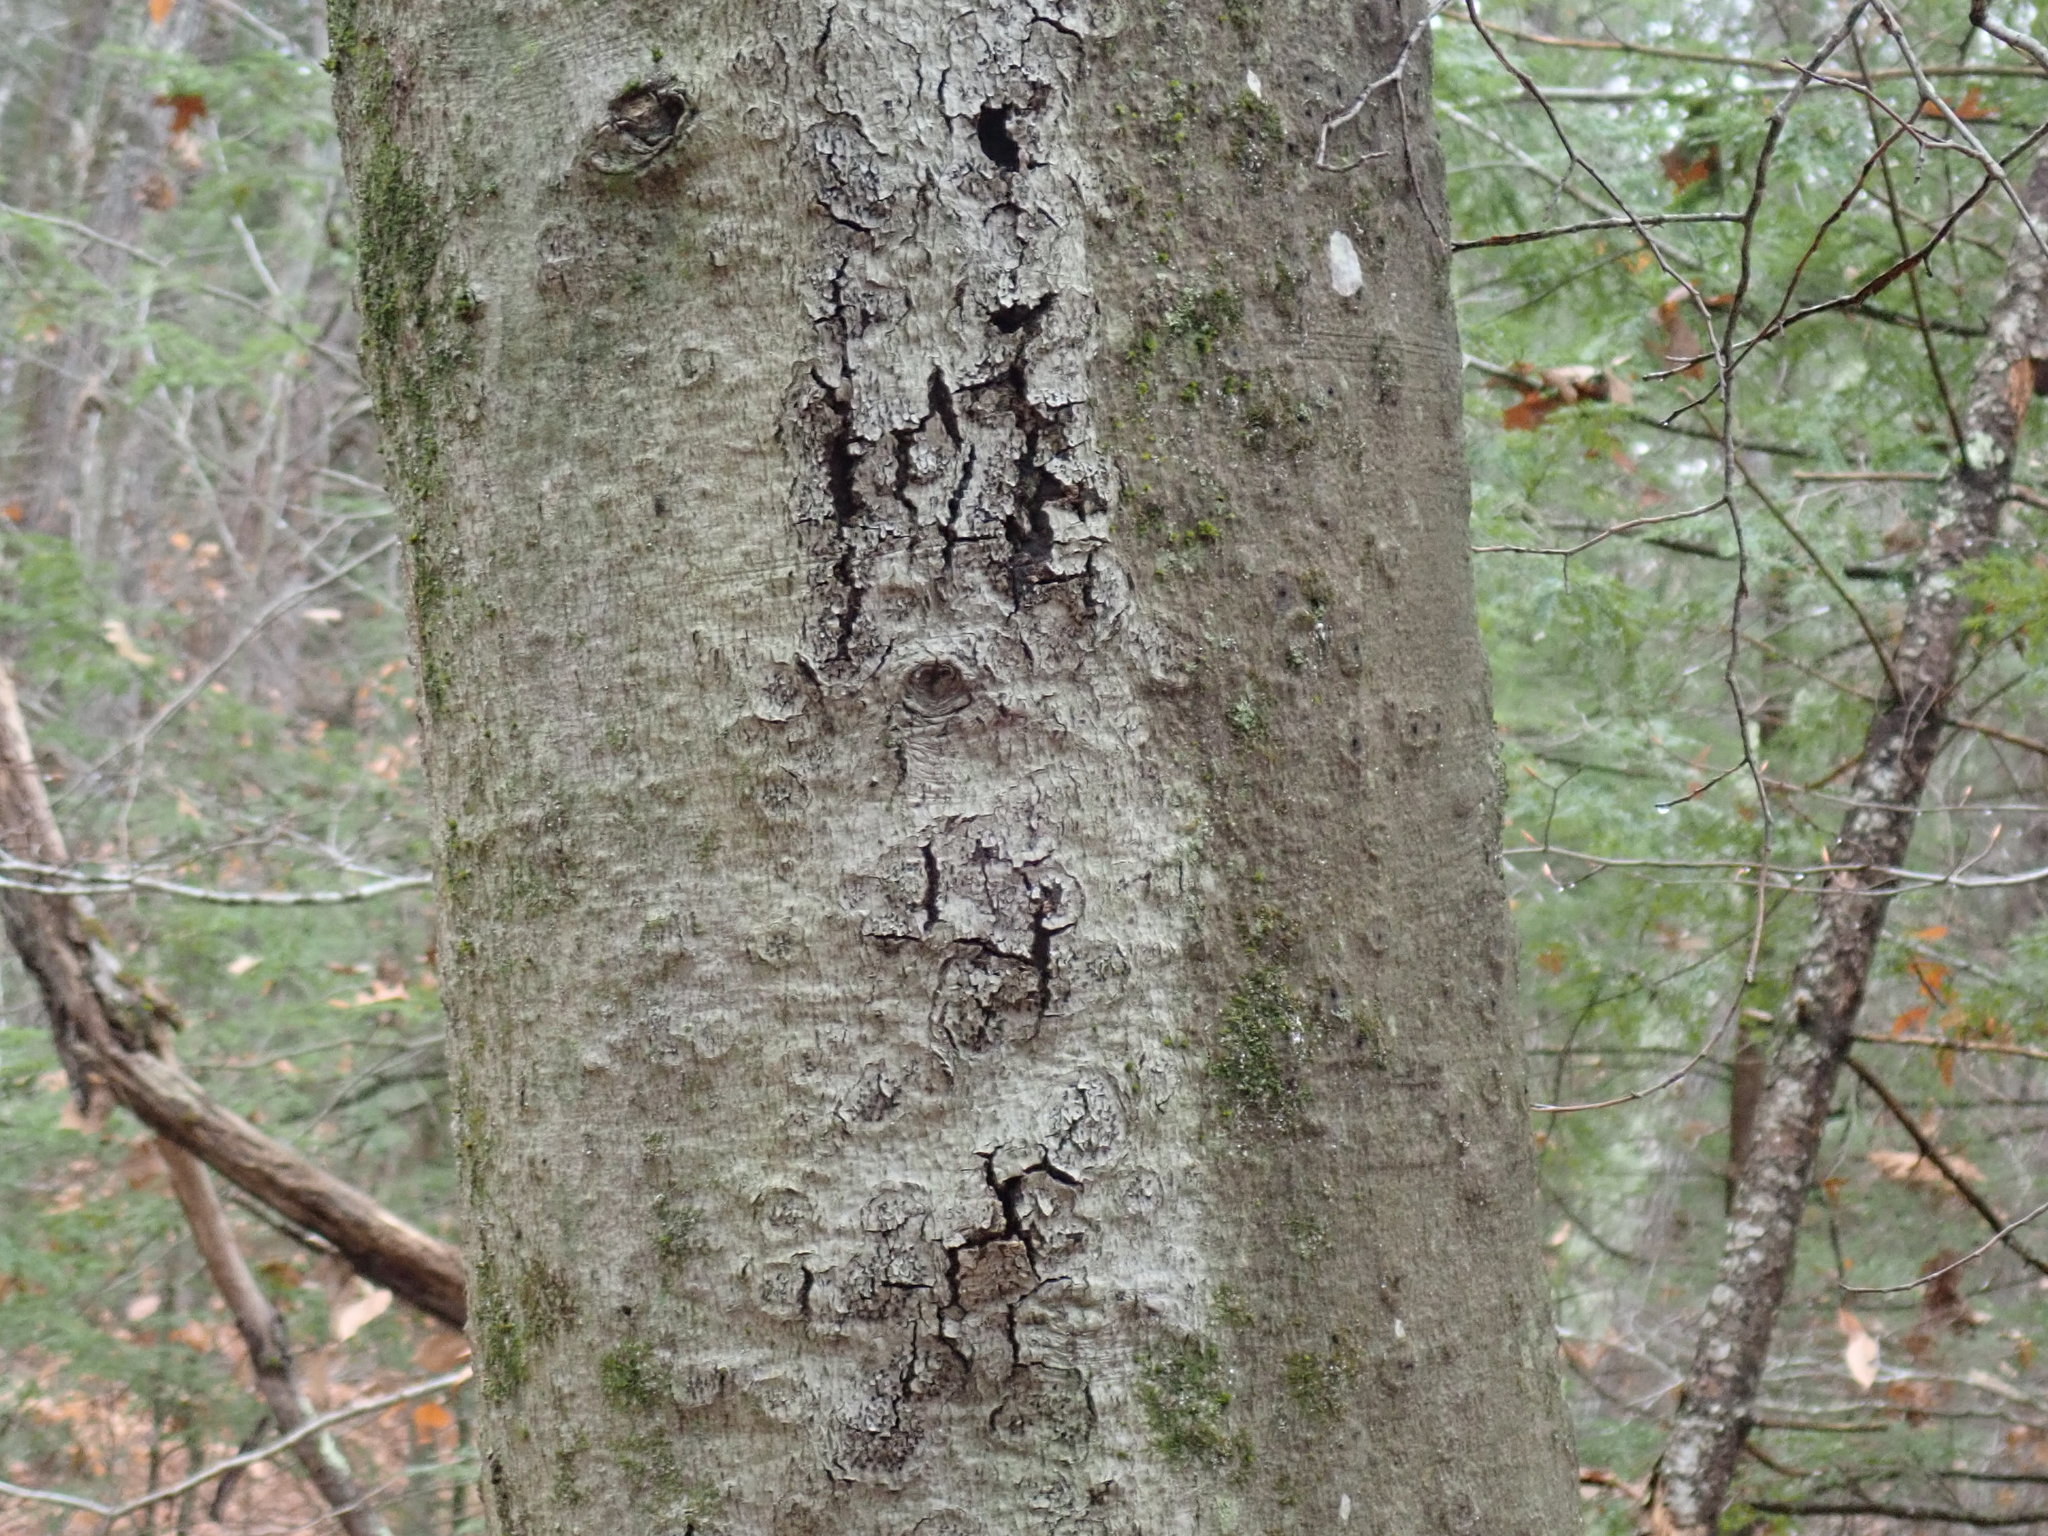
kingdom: Fungi
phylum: Ascomycota
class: Sordariomycetes
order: Hypocreales
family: Nectriaceae
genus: Neonectria
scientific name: Neonectria faginata
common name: Beech bark canker
